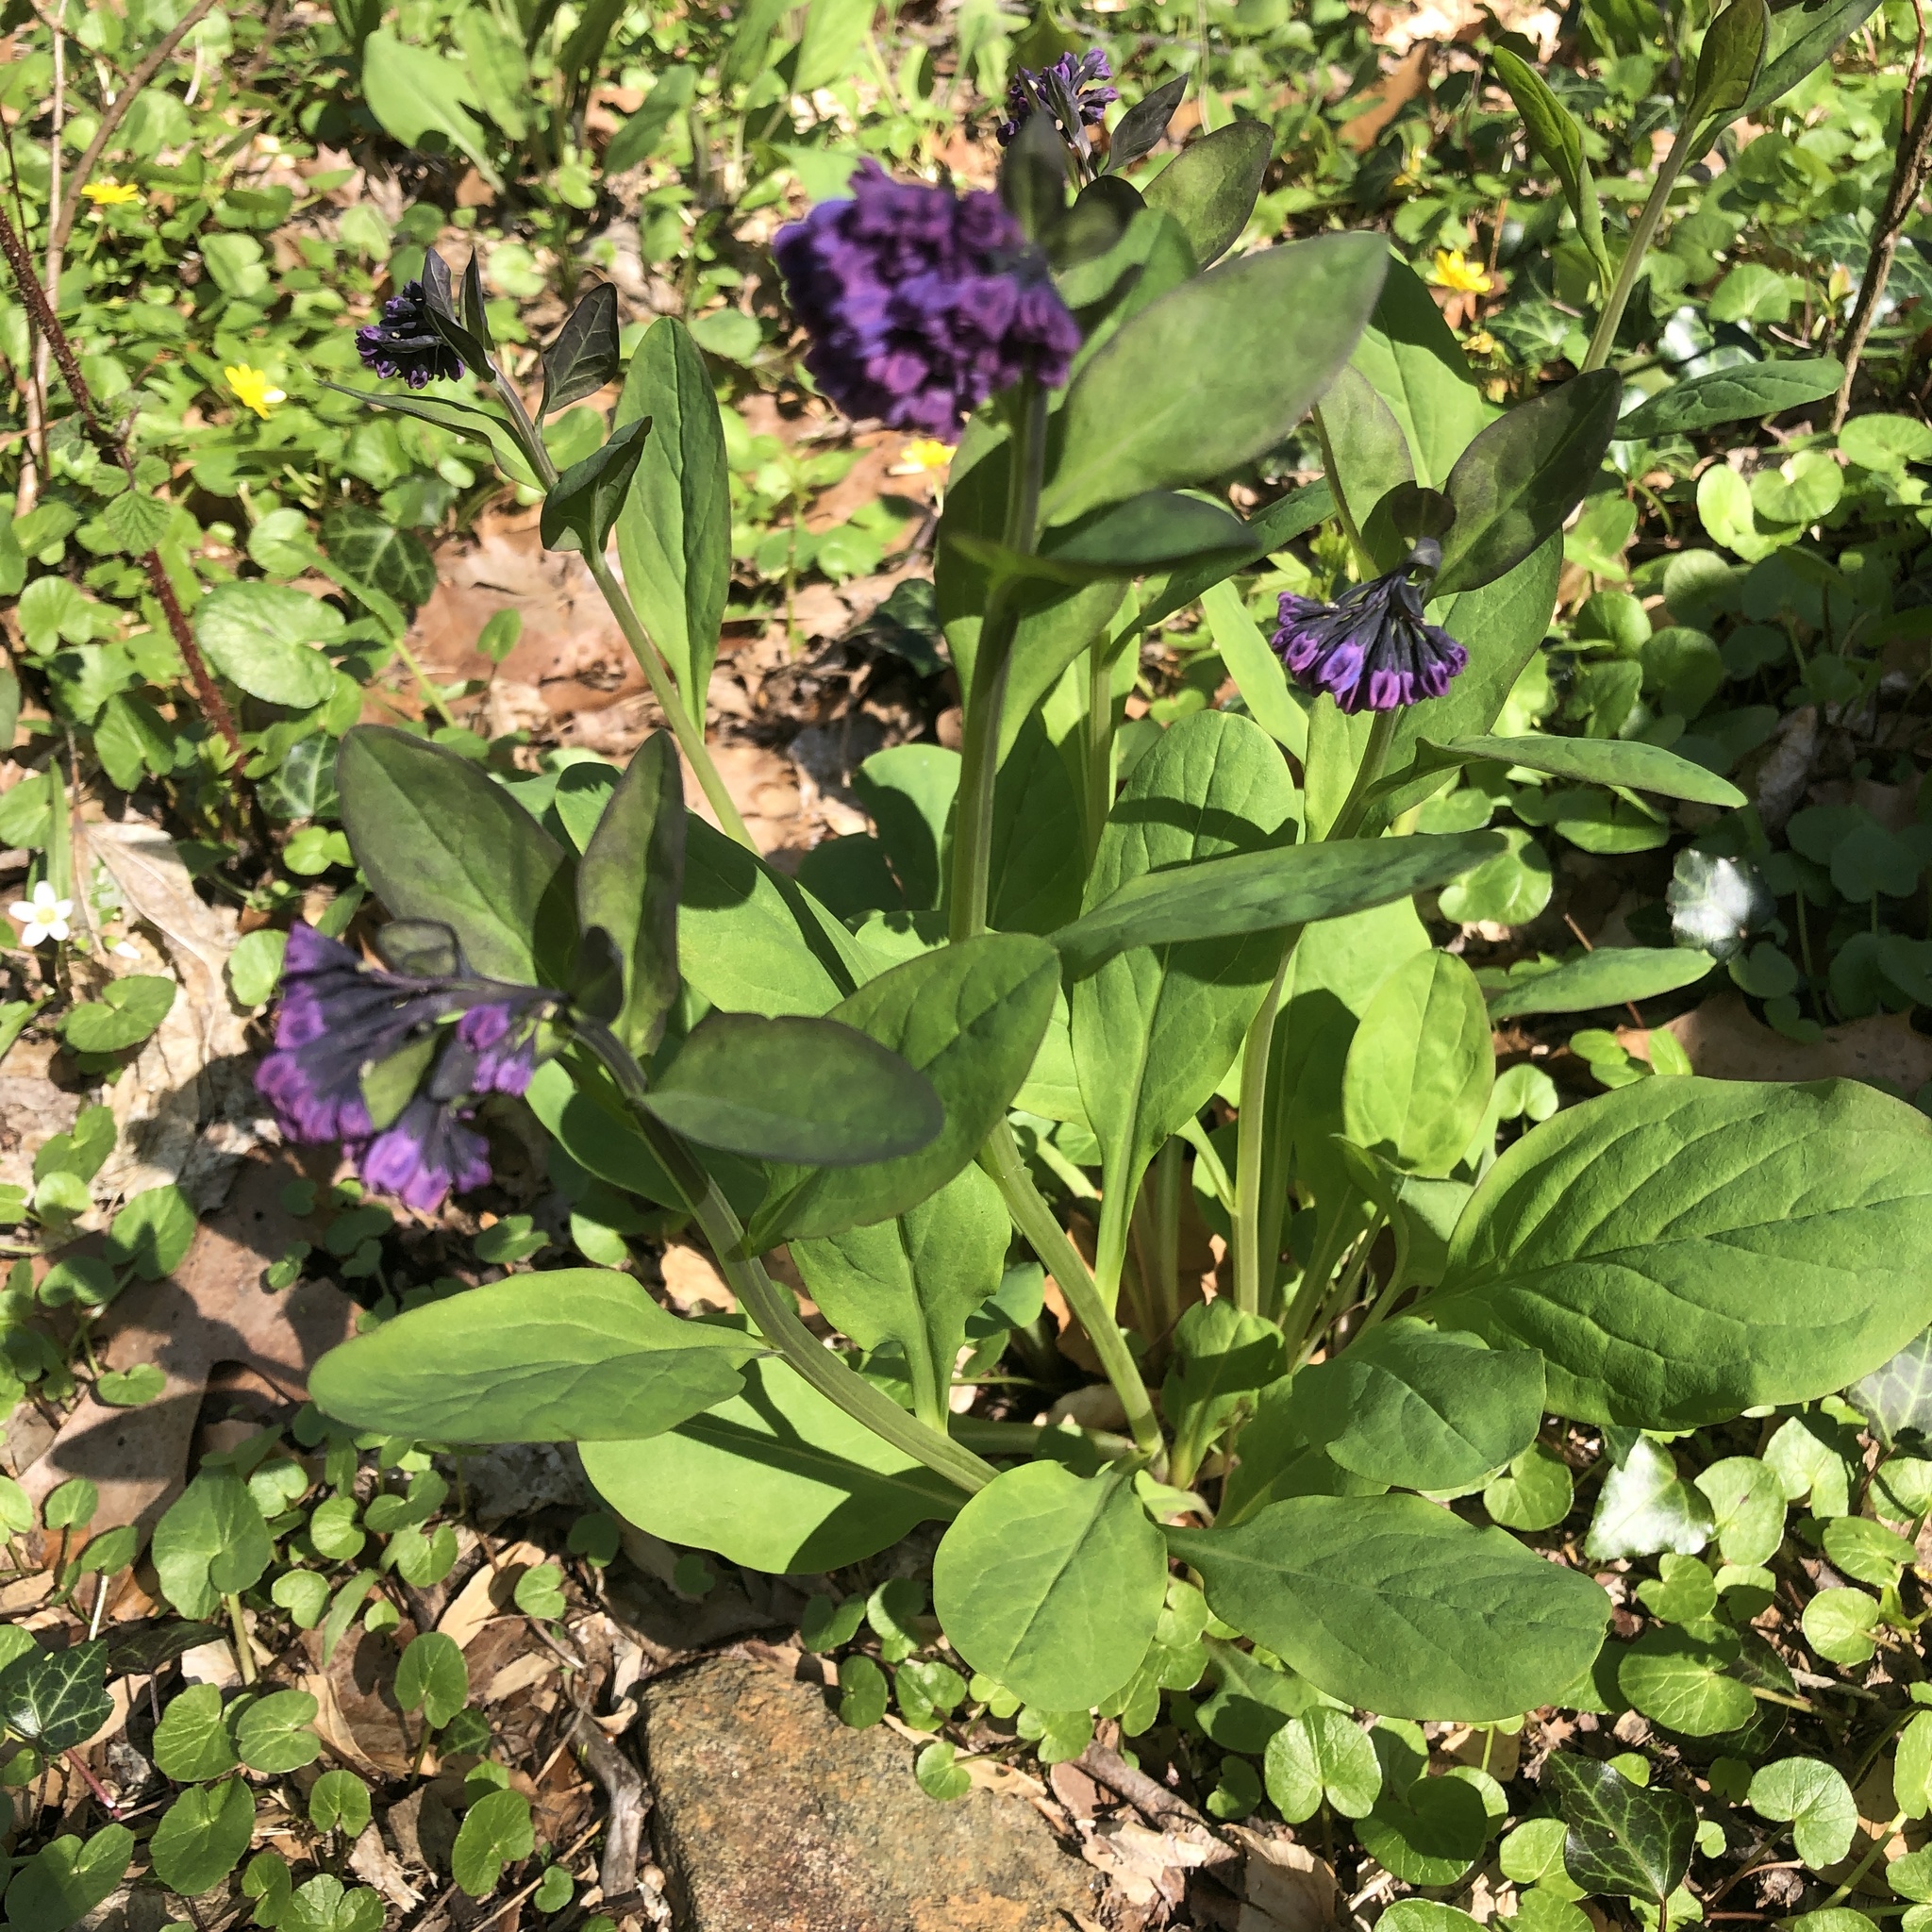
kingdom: Plantae
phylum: Tracheophyta
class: Magnoliopsida
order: Boraginales
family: Boraginaceae
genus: Mertensia
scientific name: Mertensia virginica
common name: Virginia bluebells
